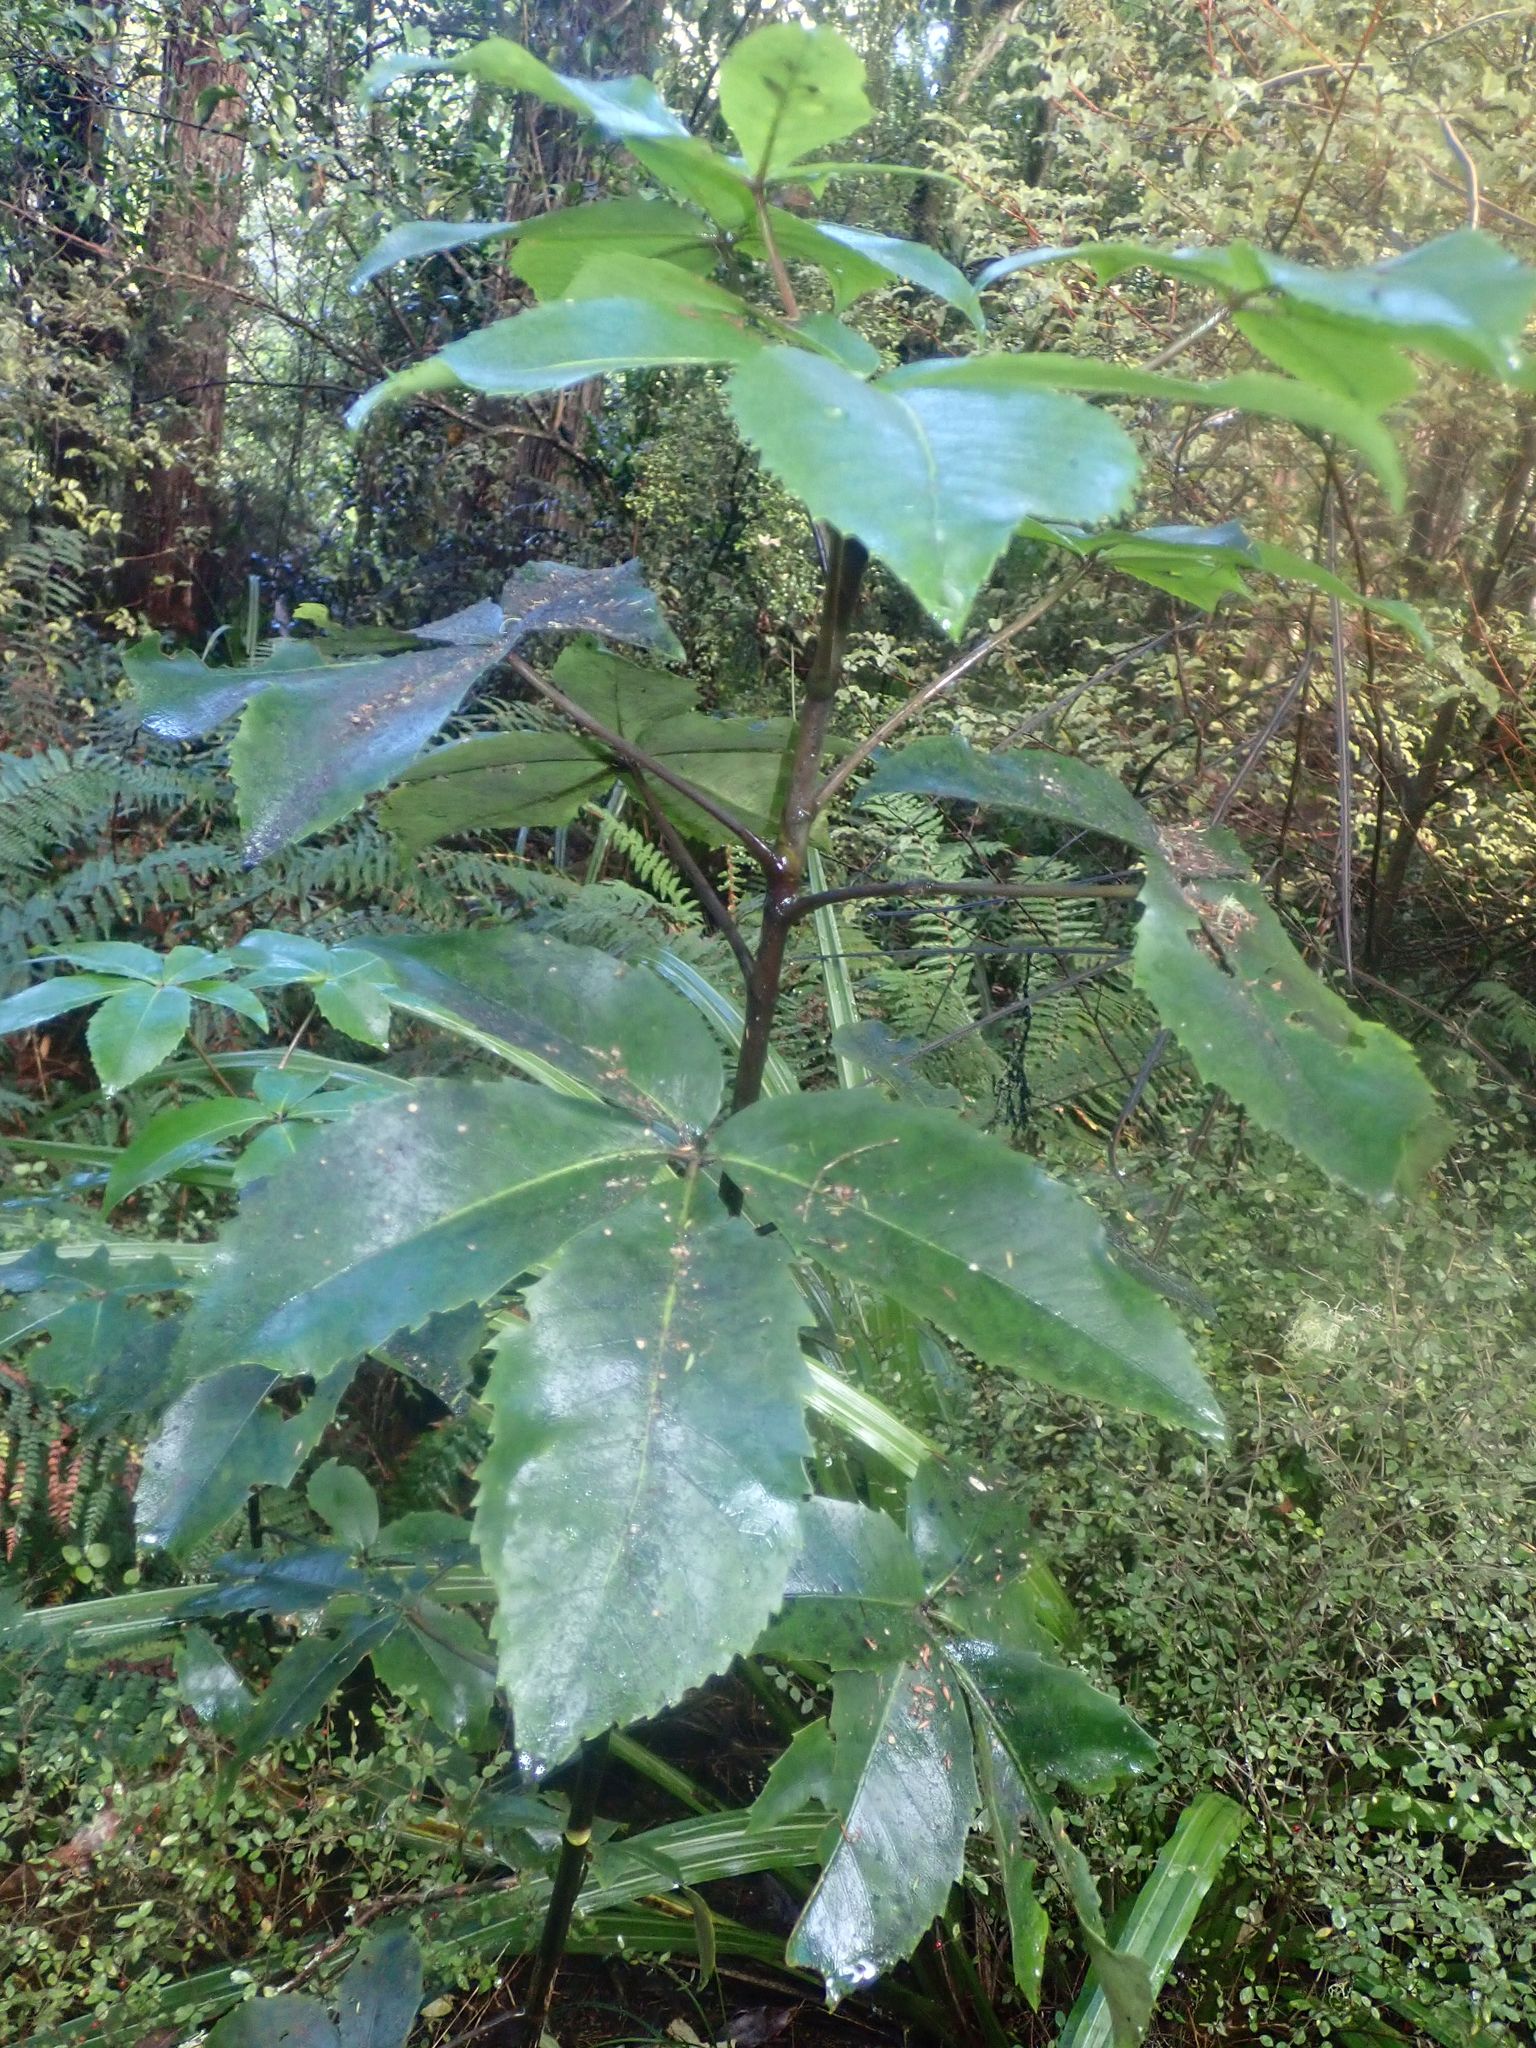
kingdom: Plantae
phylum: Tracheophyta
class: Magnoliopsida
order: Apiales
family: Araliaceae
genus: Neopanax
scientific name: Neopanax colensoi
